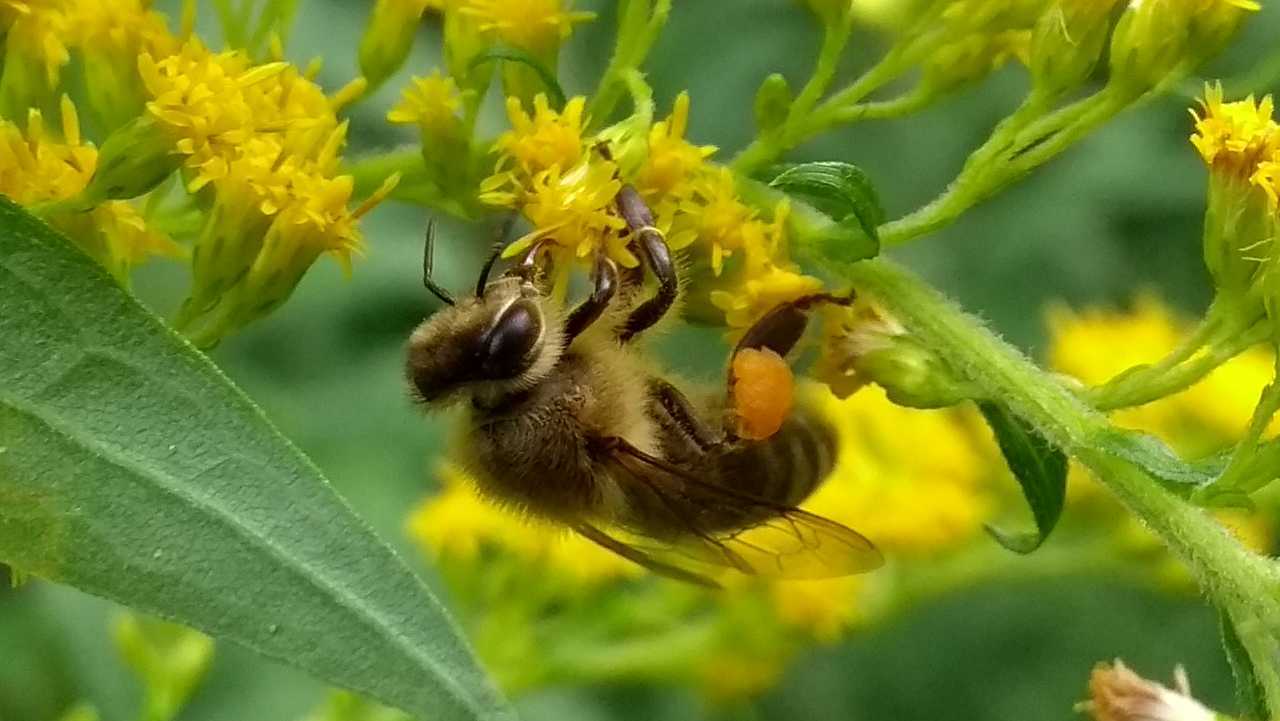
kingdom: Animalia
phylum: Arthropoda
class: Insecta
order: Hymenoptera
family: Apidae
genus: Apis
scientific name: Apis mellifera
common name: Honey bee
